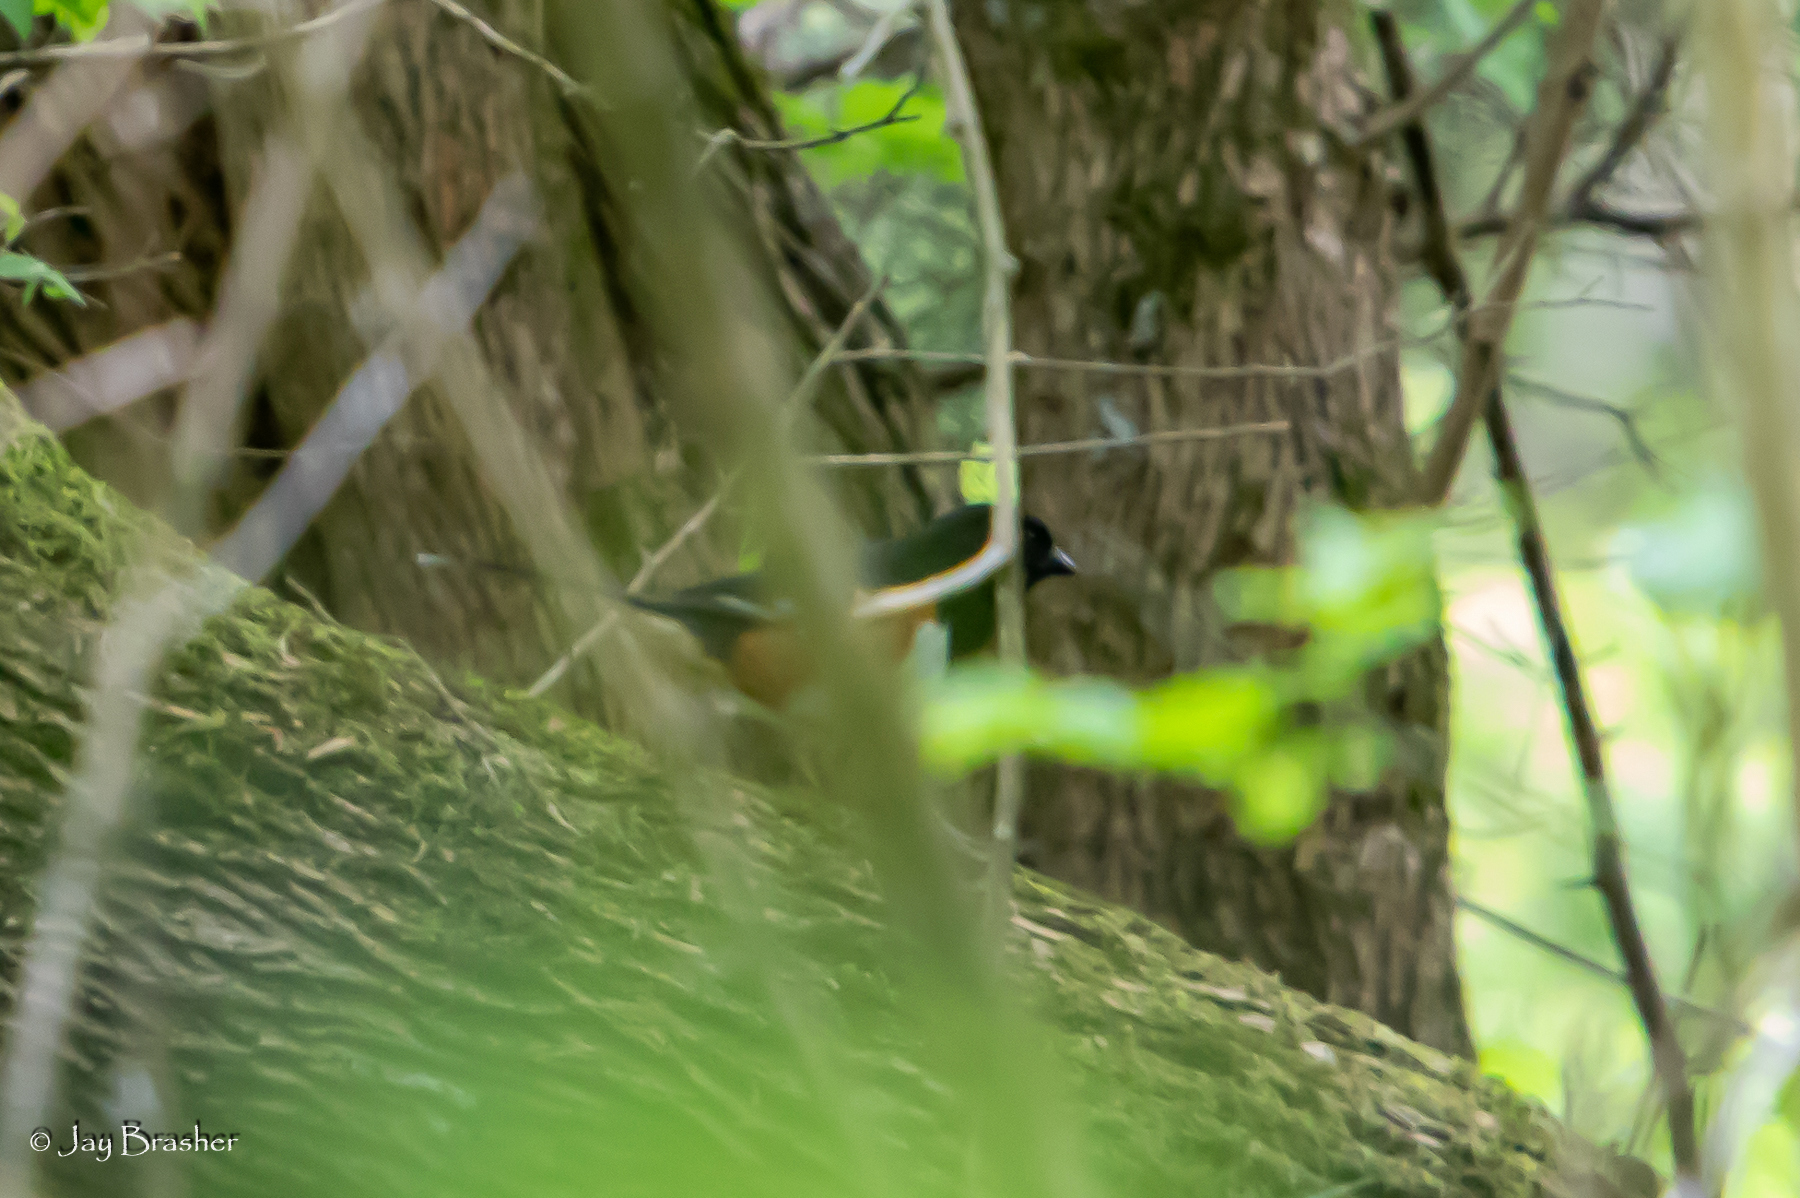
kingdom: Animalia
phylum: Chordata
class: Aves
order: Passeriformes
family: Passerellidae
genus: Pipilo
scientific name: Pipilo erythrophthalmus
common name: Eastern towhee
